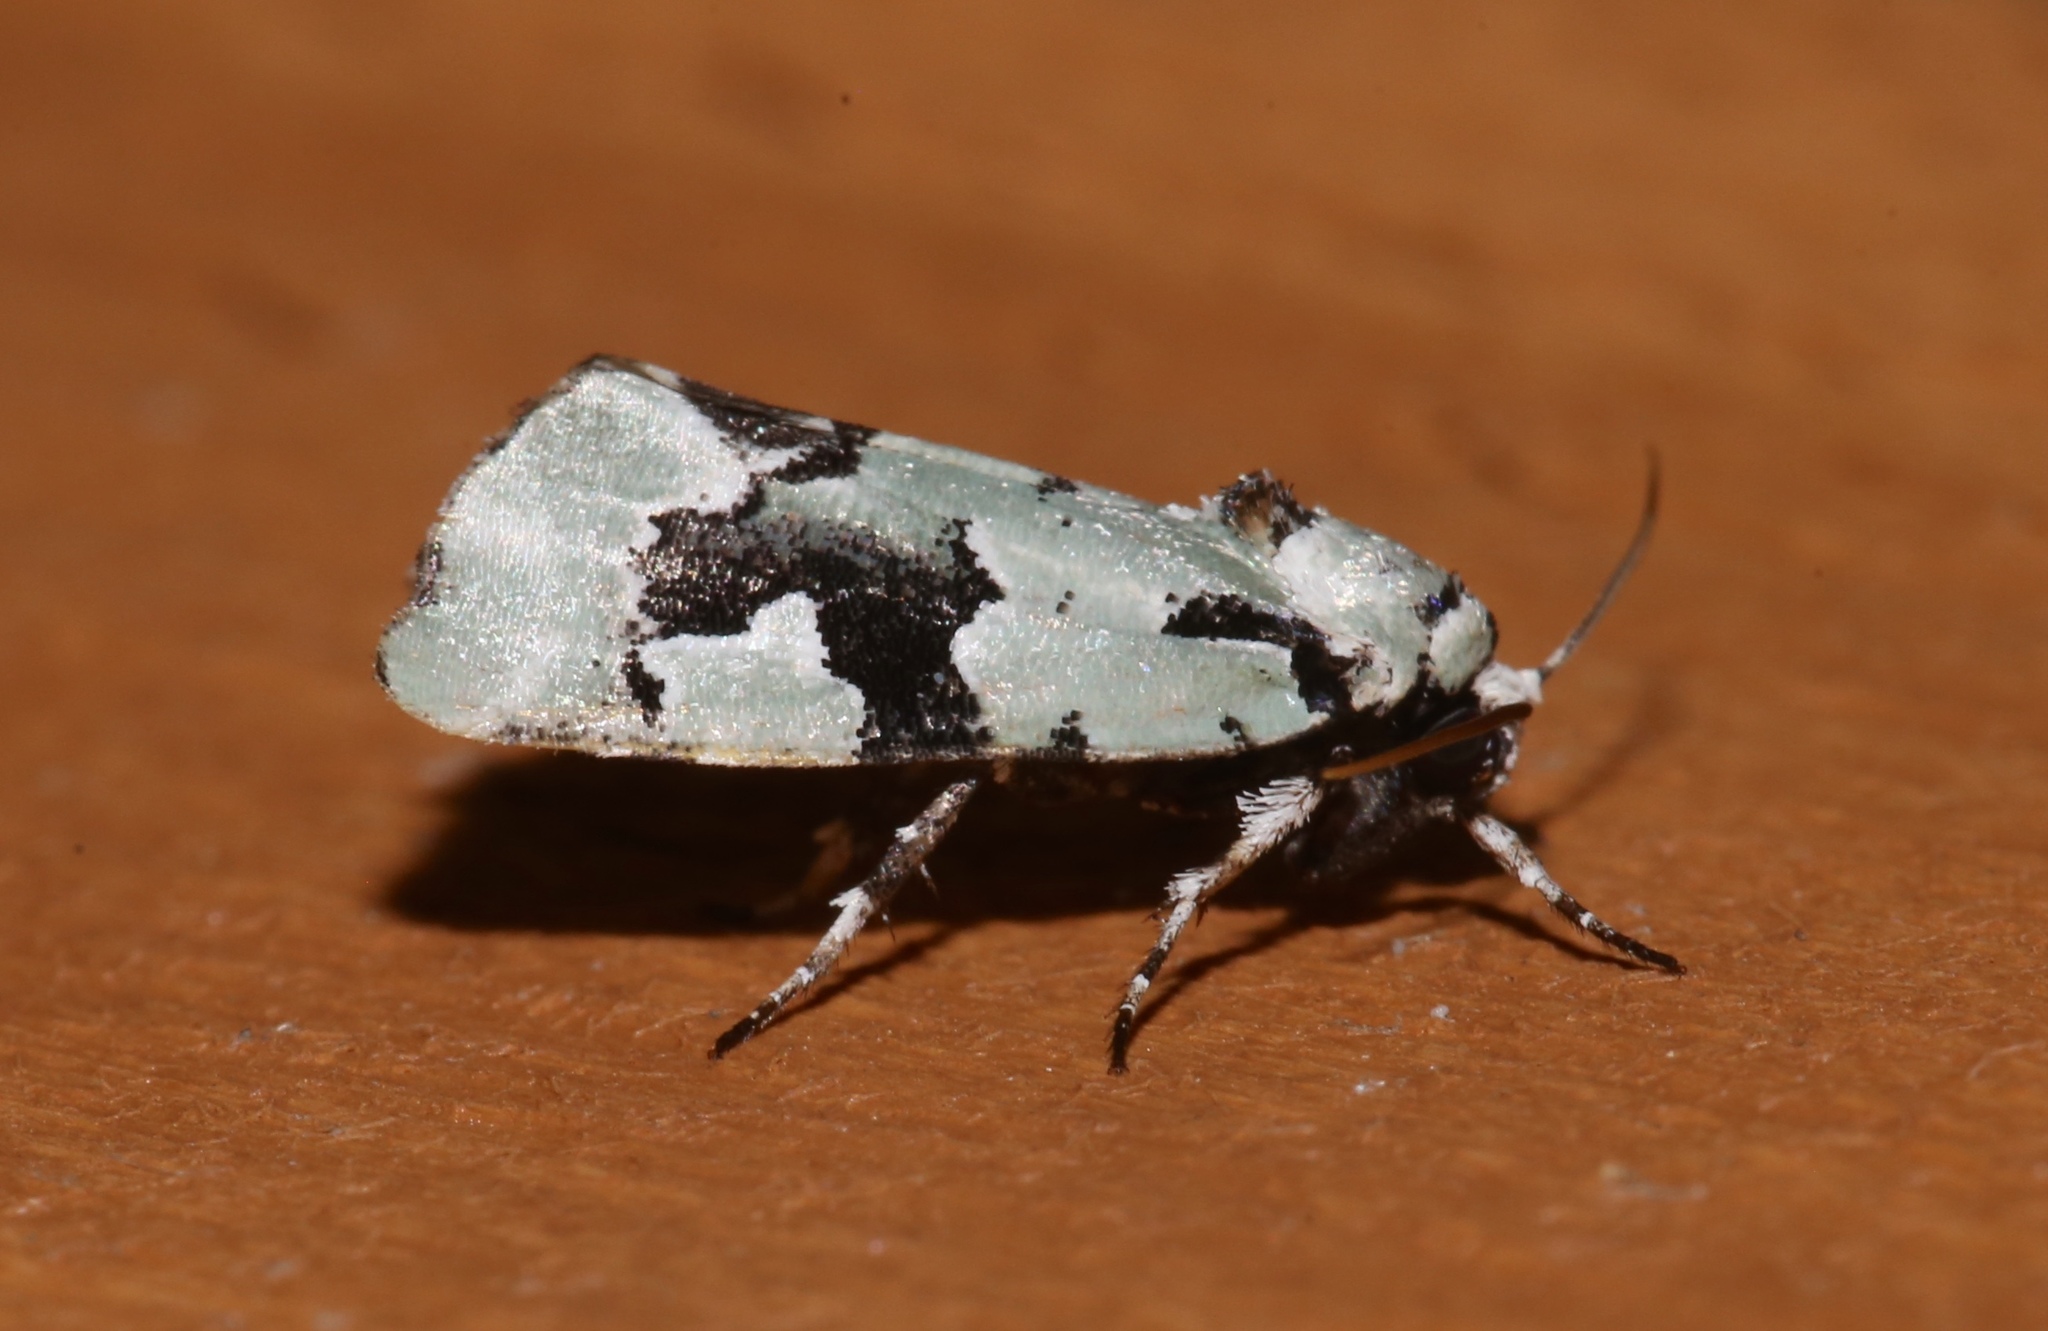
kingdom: Animalia
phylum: Arthropoda
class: Insecta
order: Lepidoptera
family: Noctuidae
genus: Emarginea
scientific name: Emarginea percara
